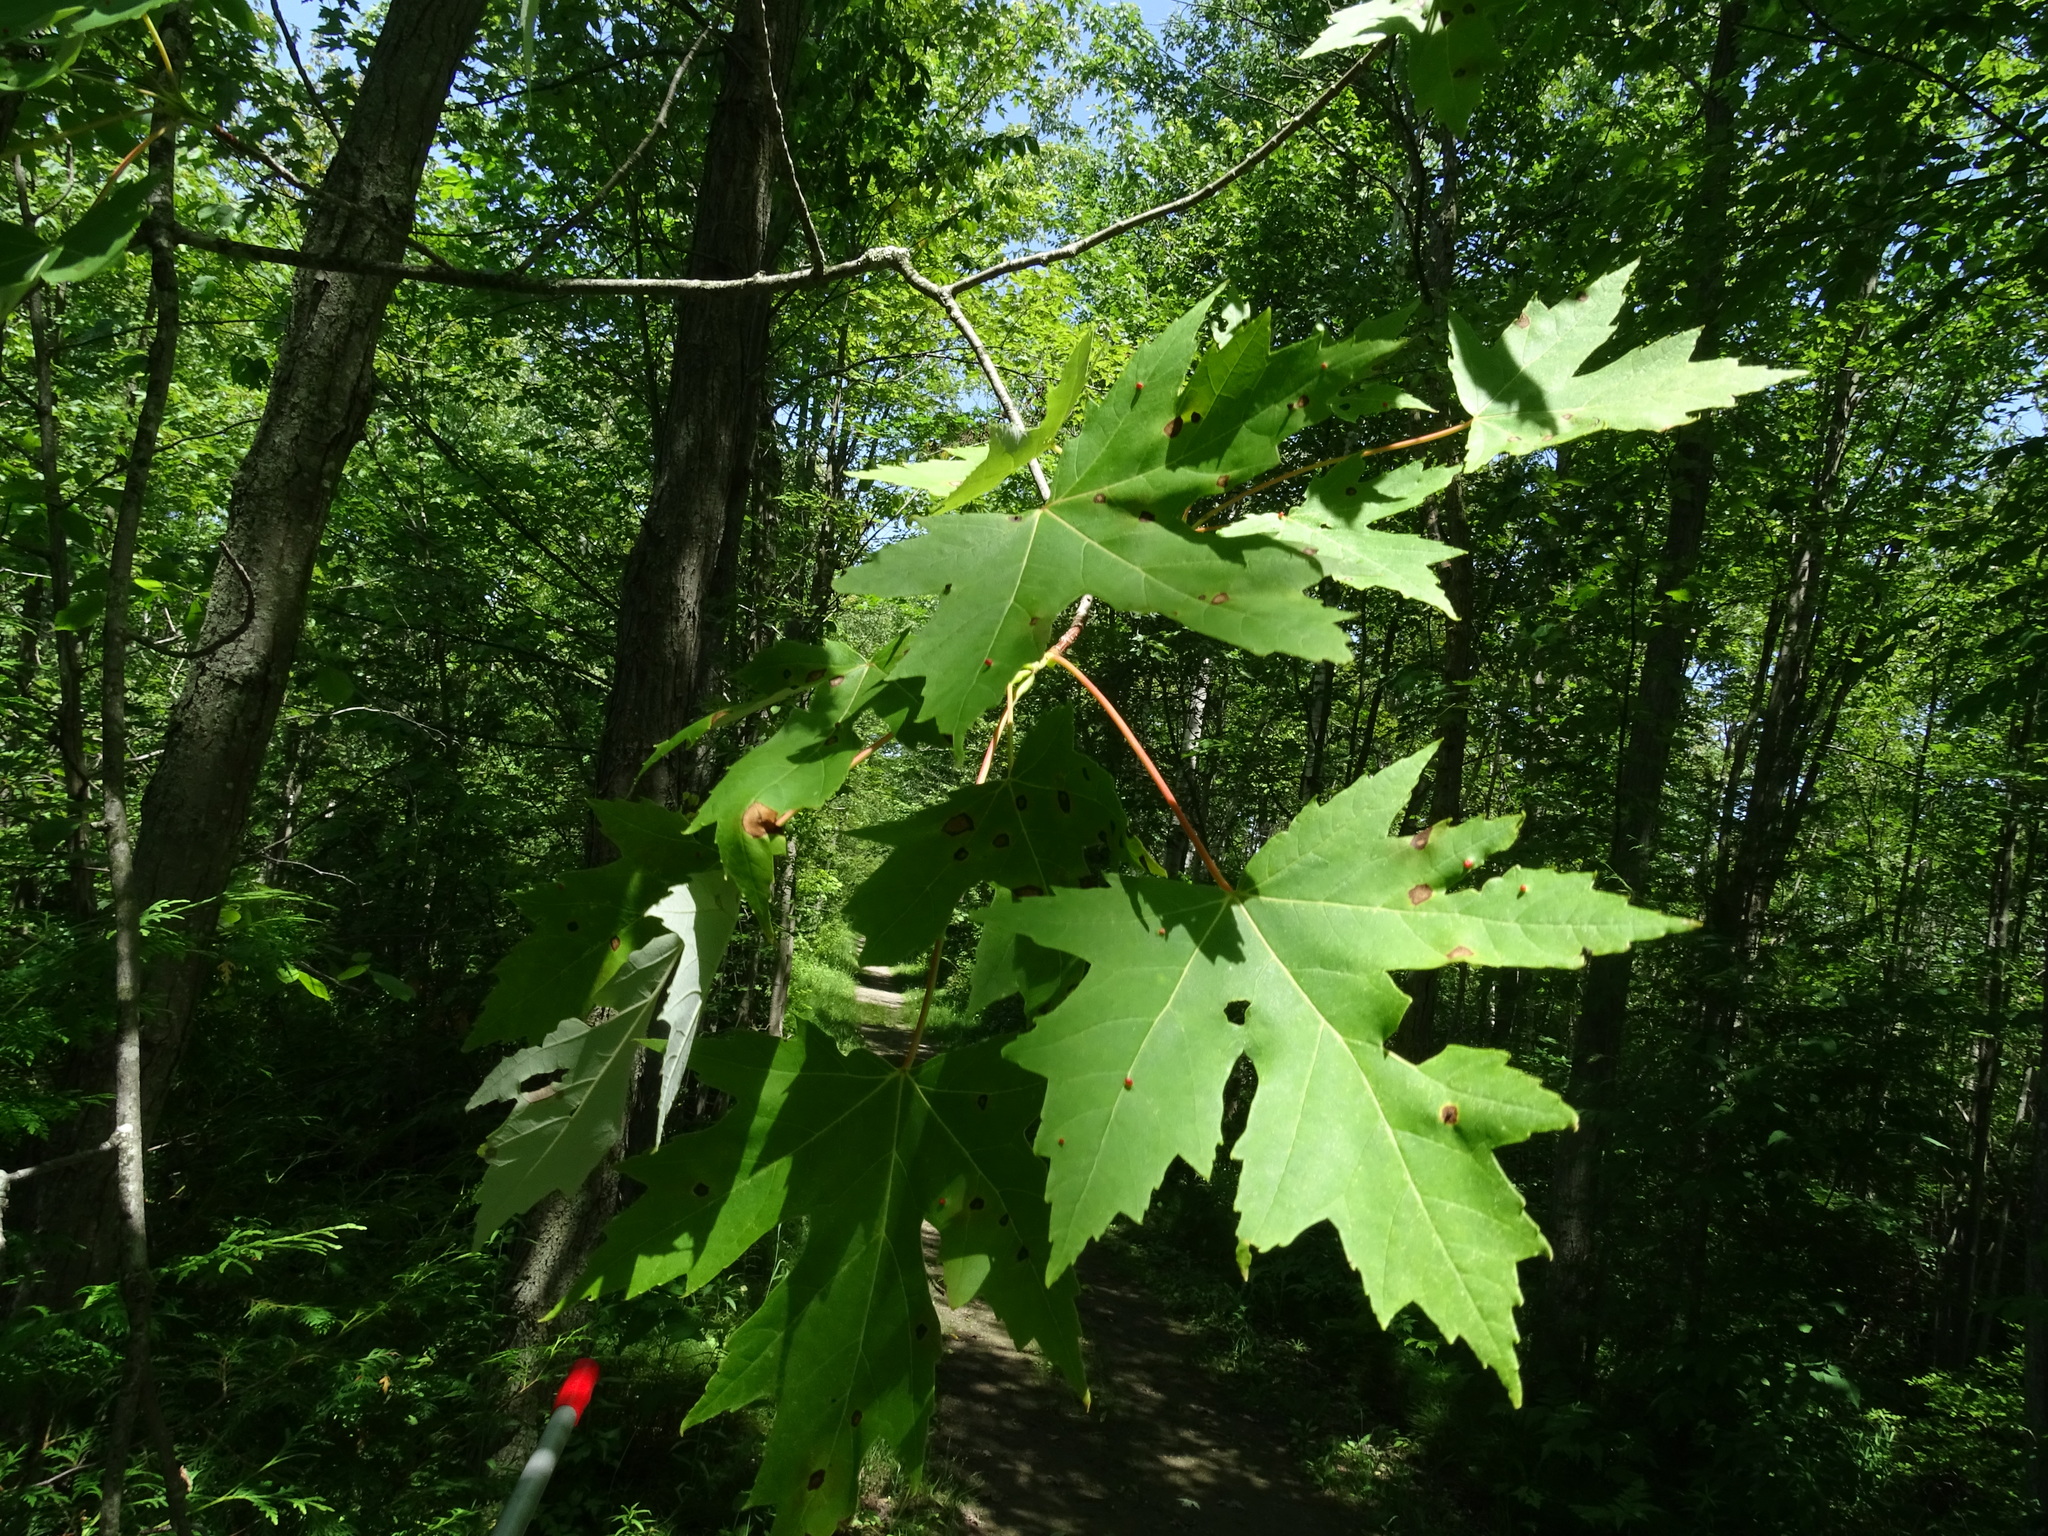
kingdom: Plantae
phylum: Tracheophyta
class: Magnoliopsida
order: Sapindales
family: Sapindaceae
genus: Acer
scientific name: Acer saccharinum
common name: Silver maple
